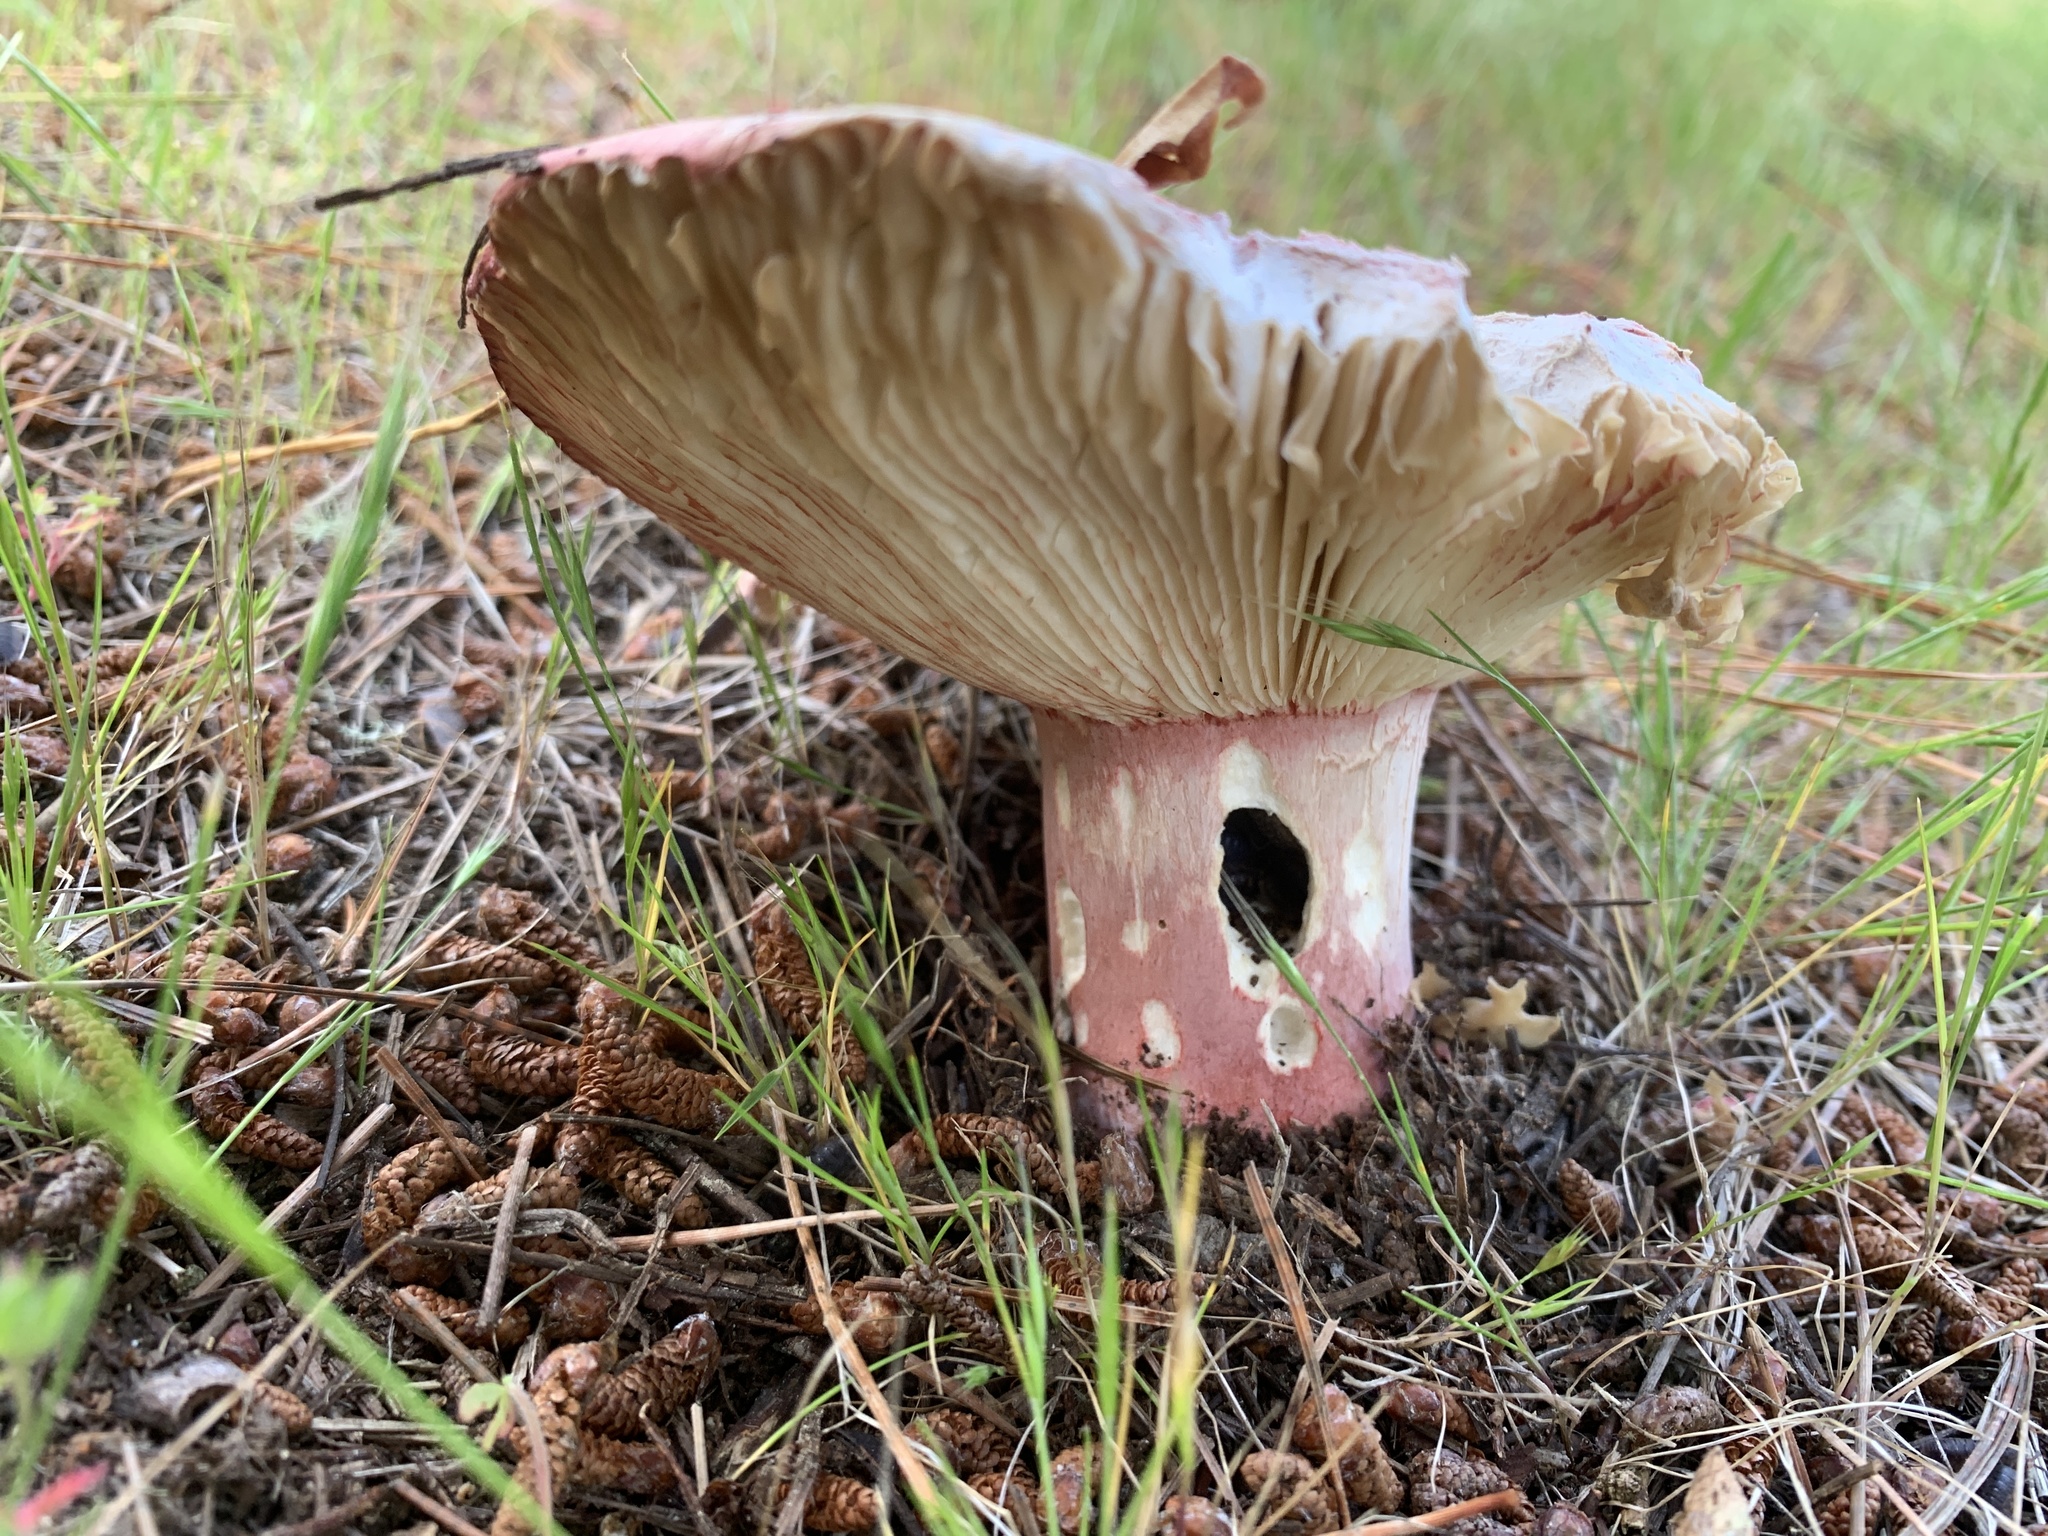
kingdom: Fungi
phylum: Basidiomycota
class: Agaricomycetes
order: Russulales
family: Russulaceae
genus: Russula
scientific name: Russula rhodocephala
